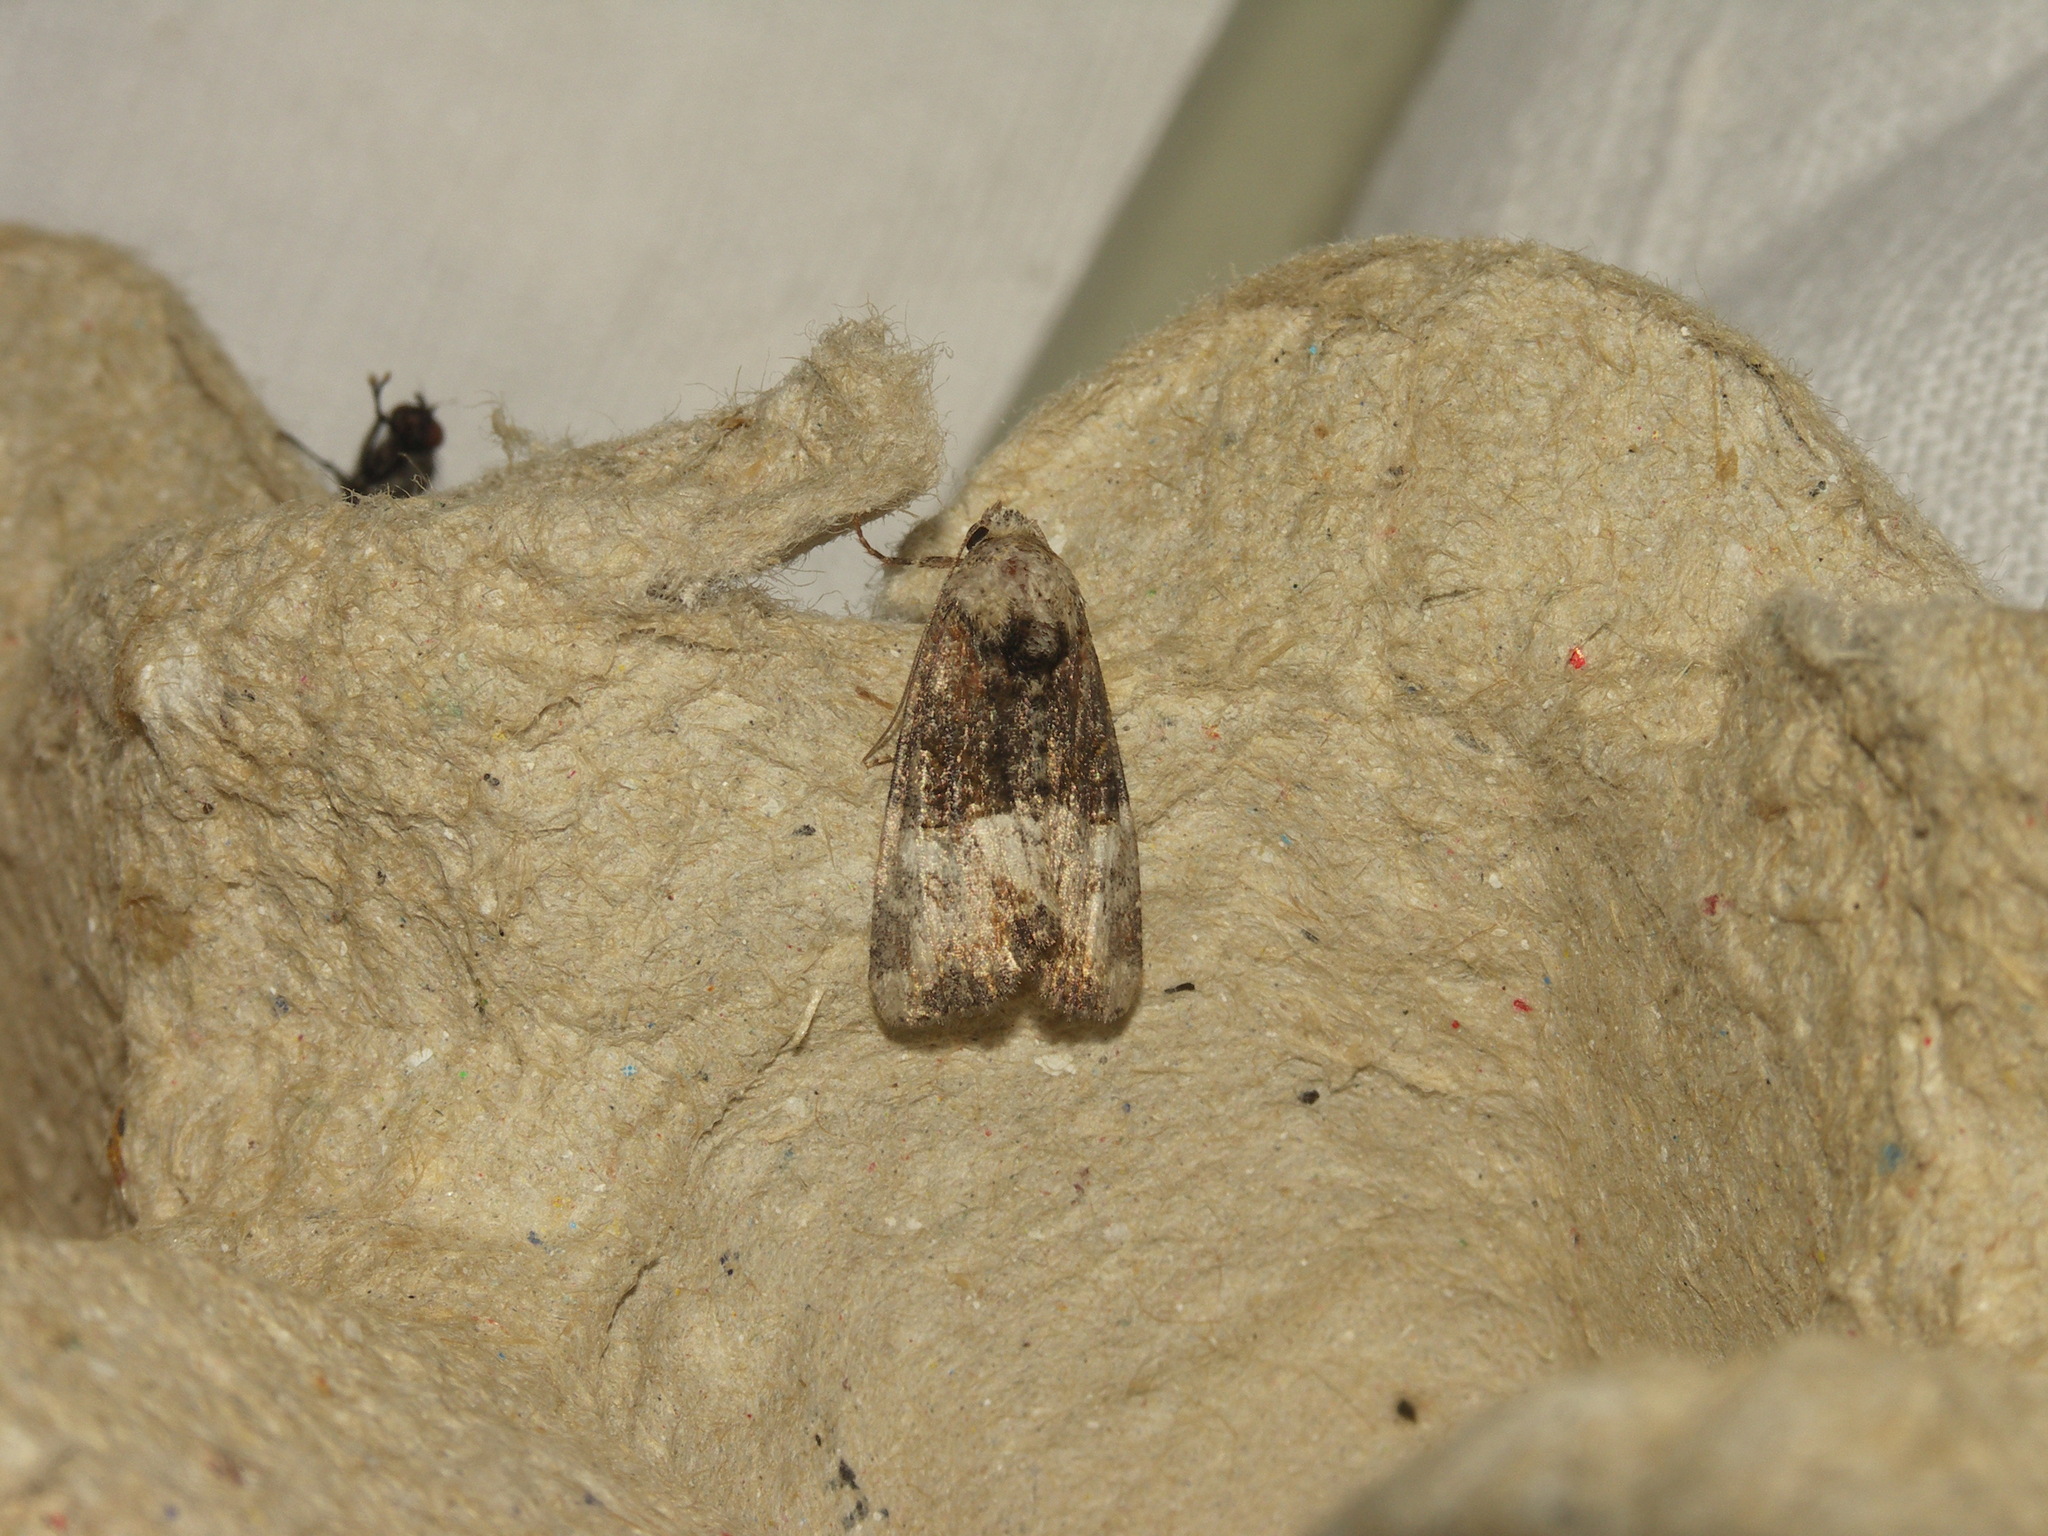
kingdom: Animalia
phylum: Arthropoda
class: Insecta
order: Lepidoptera
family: Noctuidae
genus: Mesoligia
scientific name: Mesoligia furuncula
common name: Cloaked minor
